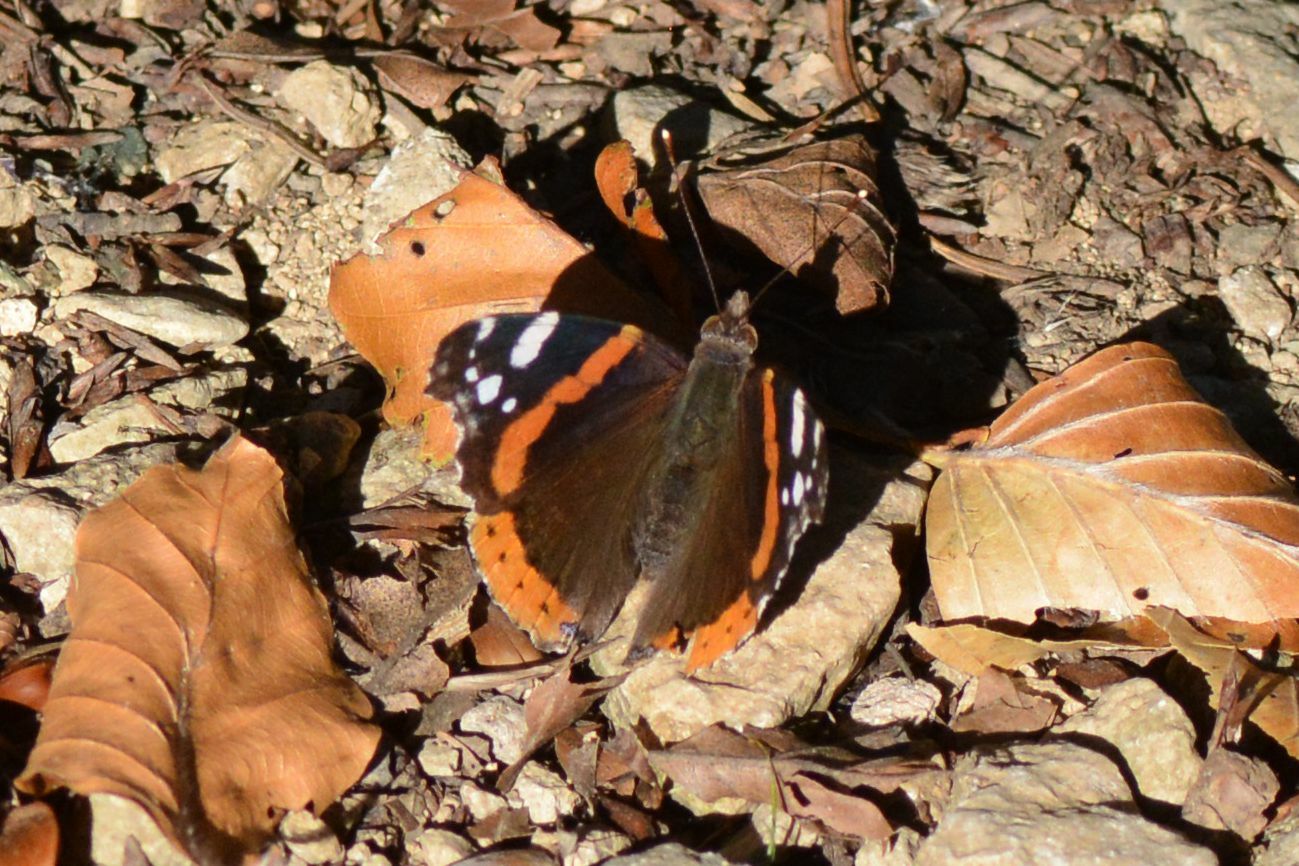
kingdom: Animalia
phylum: Arthropoda
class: Insecta
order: Lepidoptera
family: Nymphalidae
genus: Vanessa
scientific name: Vanessa atalanta
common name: Red admiral
